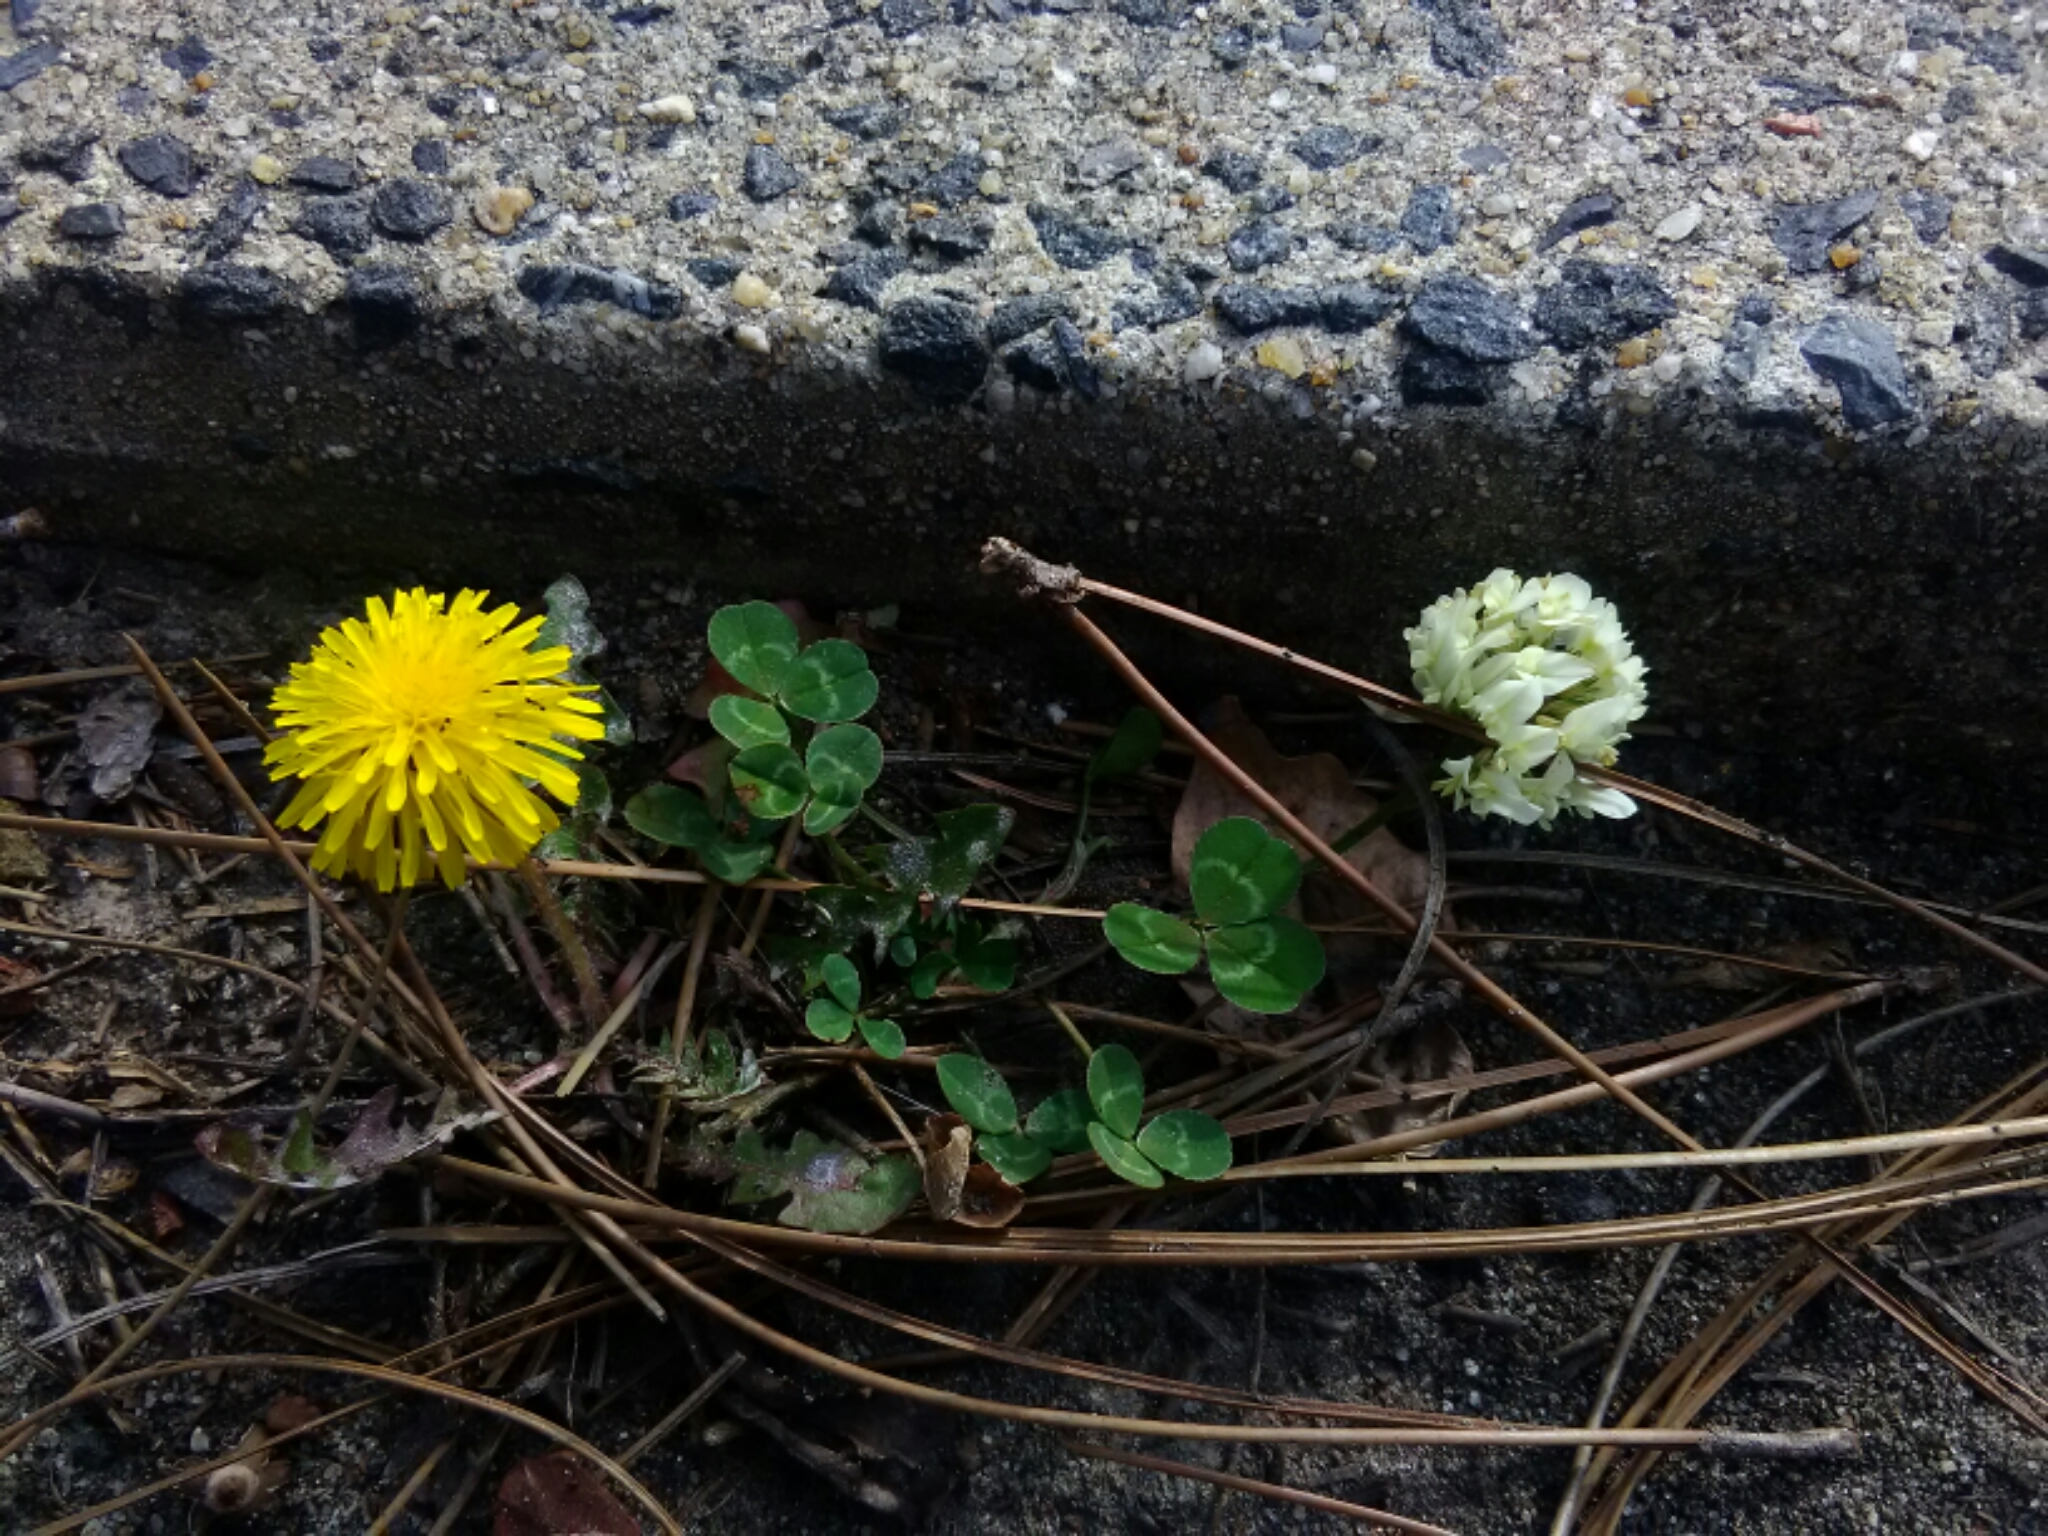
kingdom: Plantae
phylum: Tracheophyta
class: Magnoliopsida
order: Asterales
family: Asteraceae
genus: Taraxacum
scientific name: Taraxacum officinale
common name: Common dandelion
